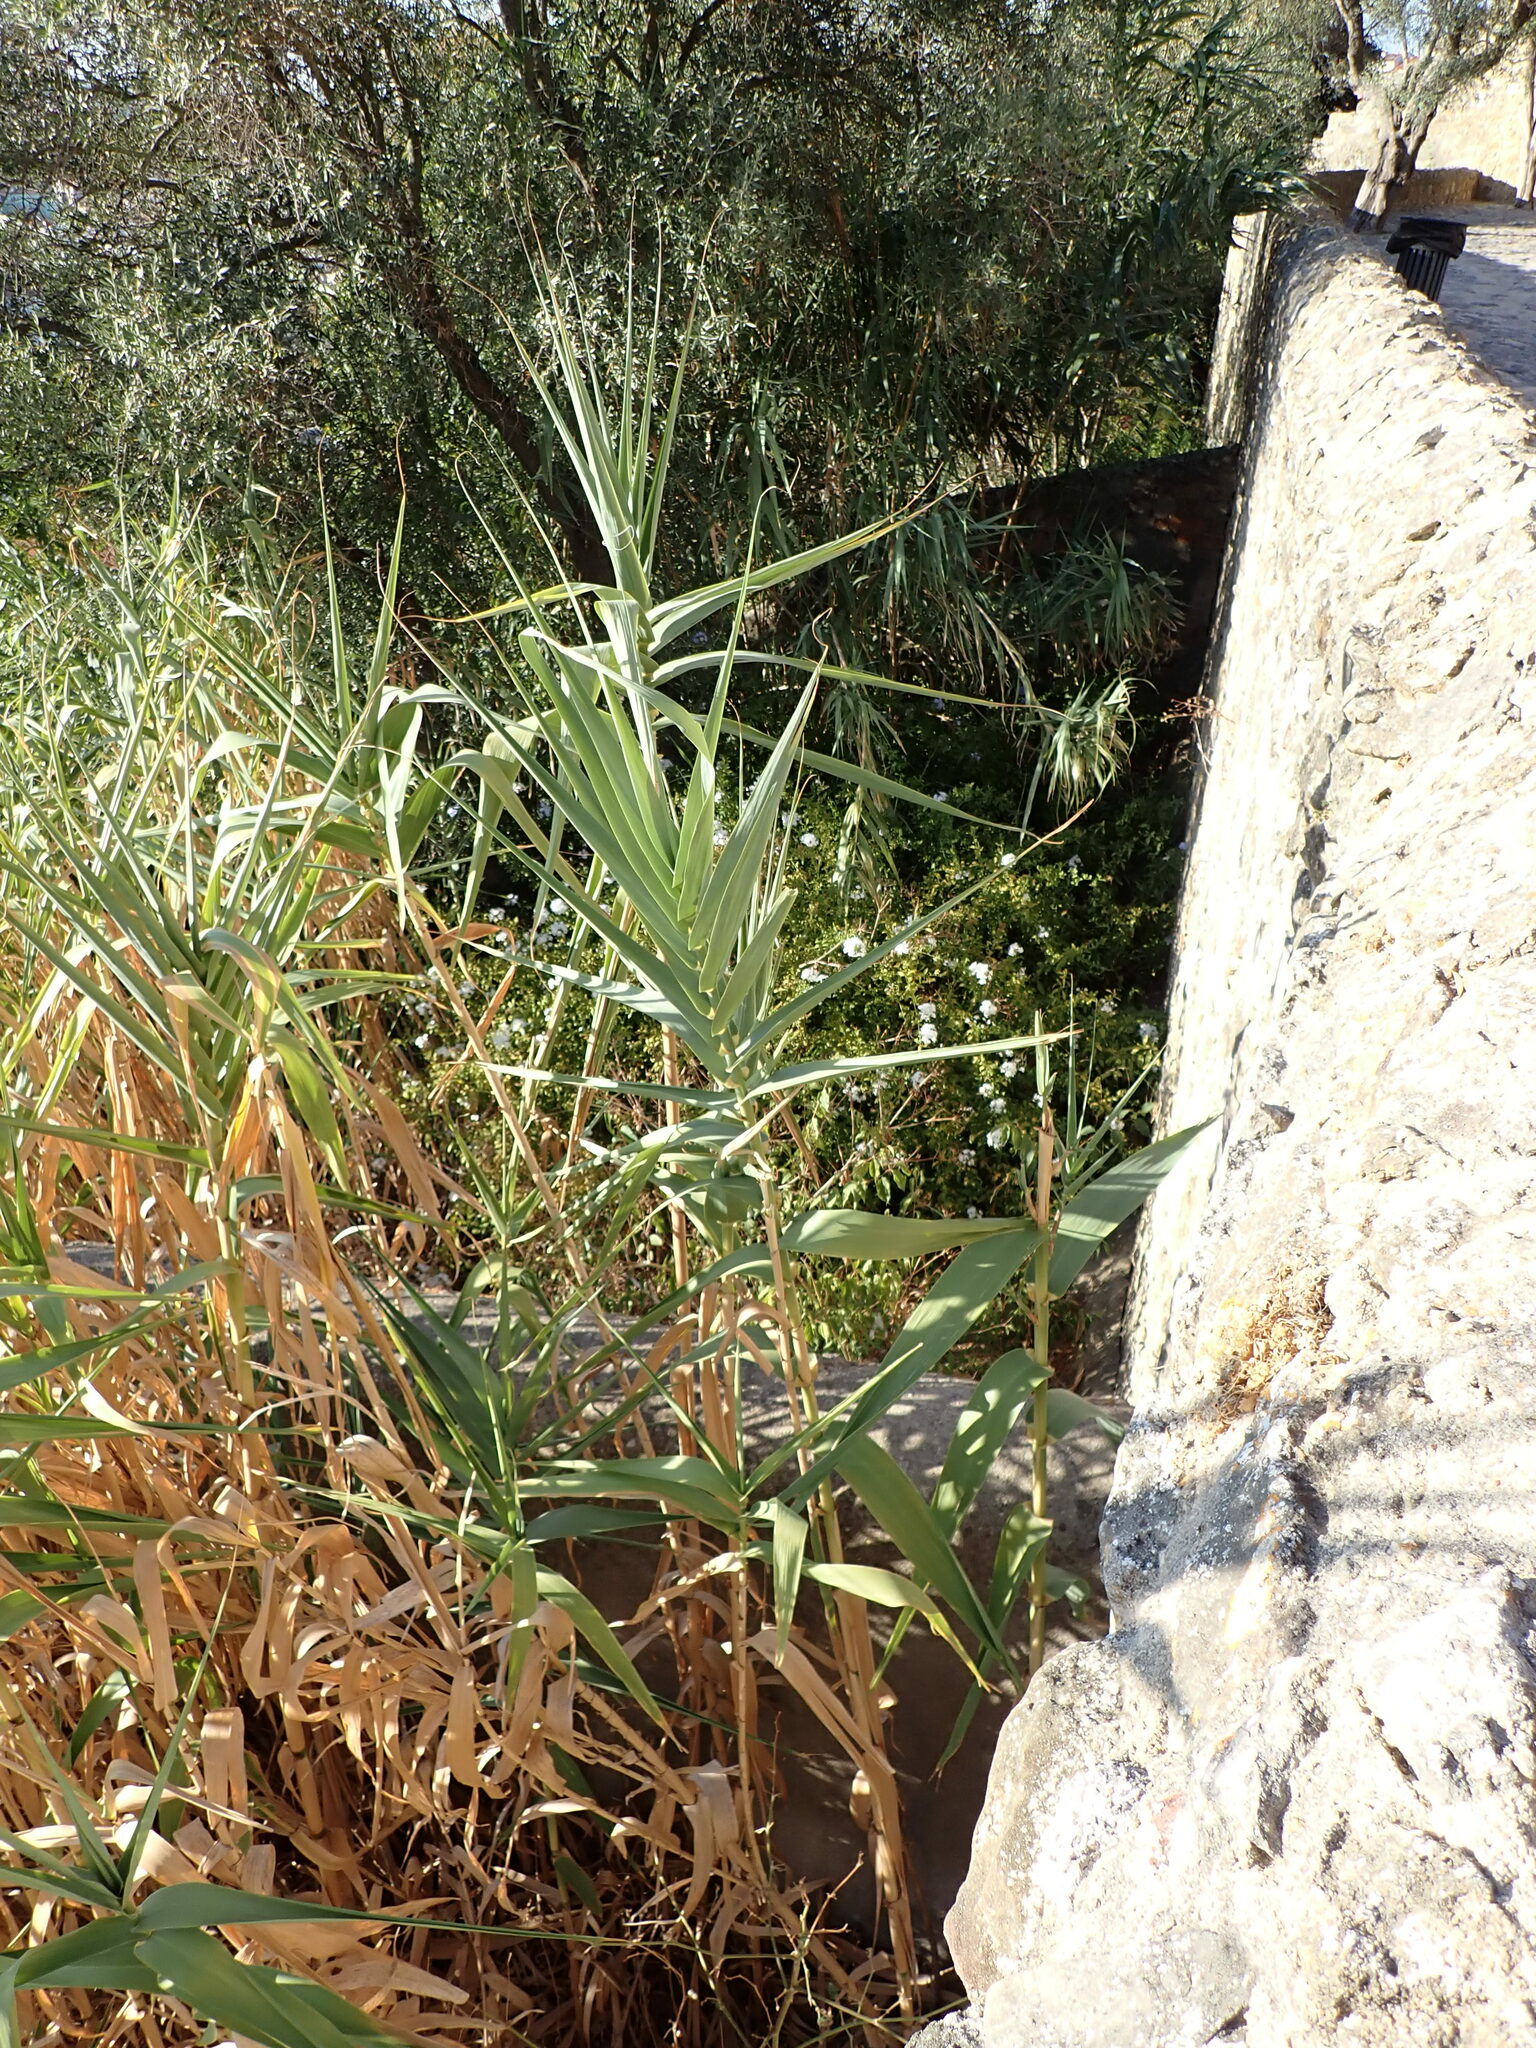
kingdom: Plantae
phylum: Tracheophyta
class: Liliopsida
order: Poales
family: Poaceae
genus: Arundo
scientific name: Arundo donax
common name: Giant reed
